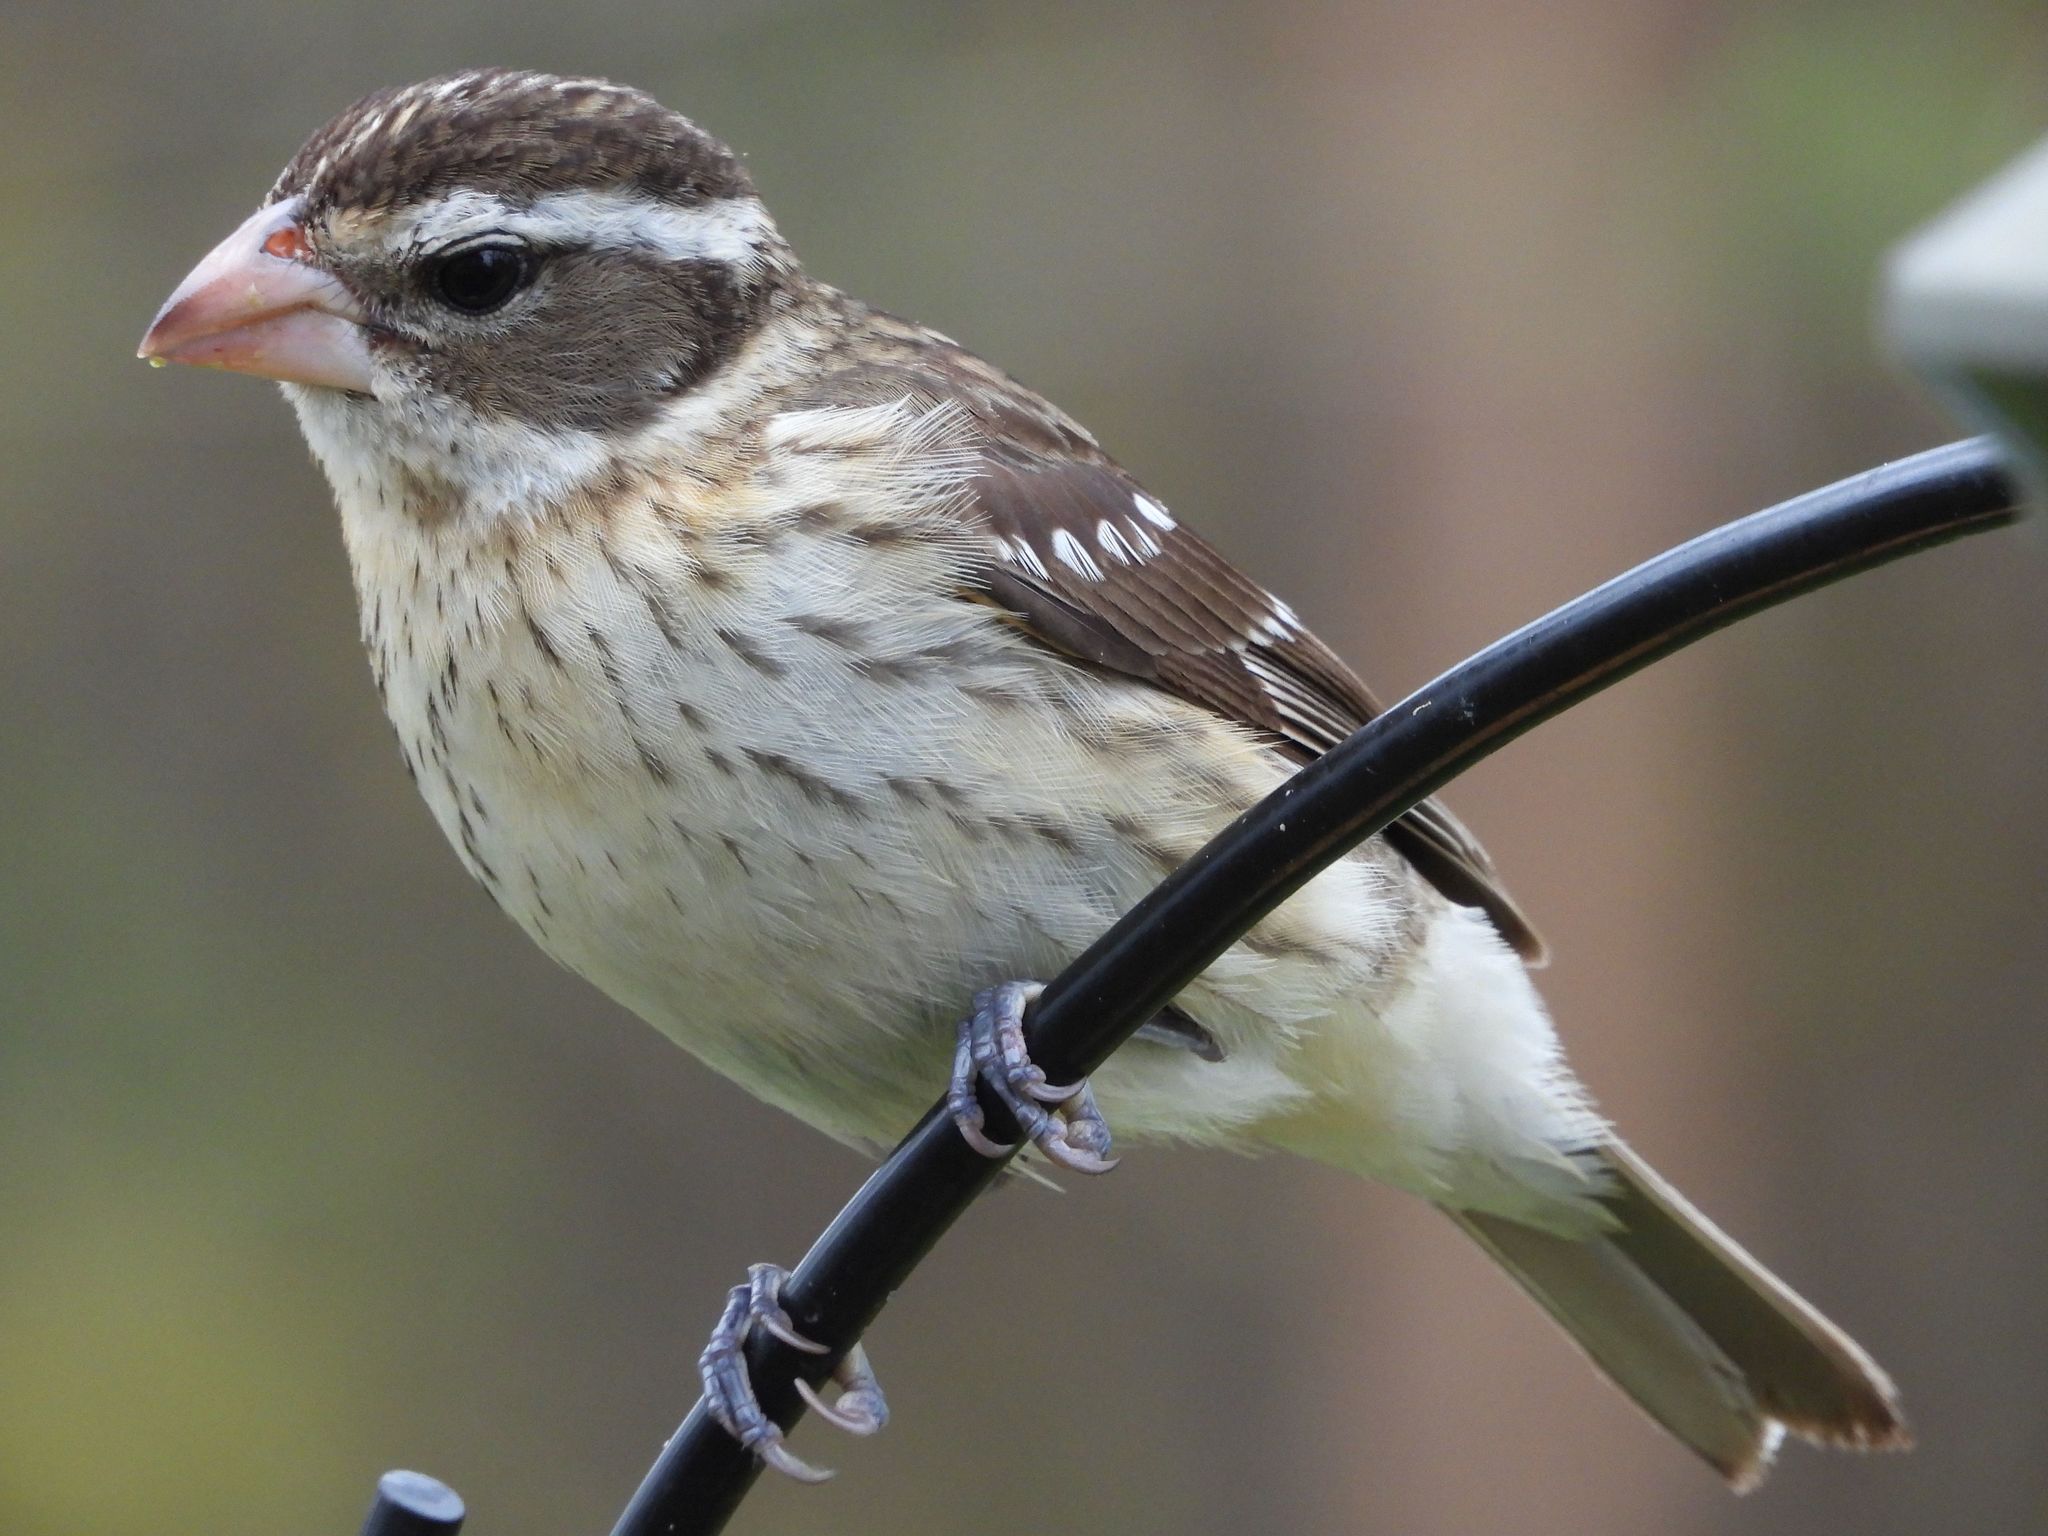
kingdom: Animalia
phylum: Chordata
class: Aves
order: Passeriformes
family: Cardinalidae
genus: Pheucticus
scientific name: Pheucticus ludovicianus
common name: Rose-breasted grosbeak
